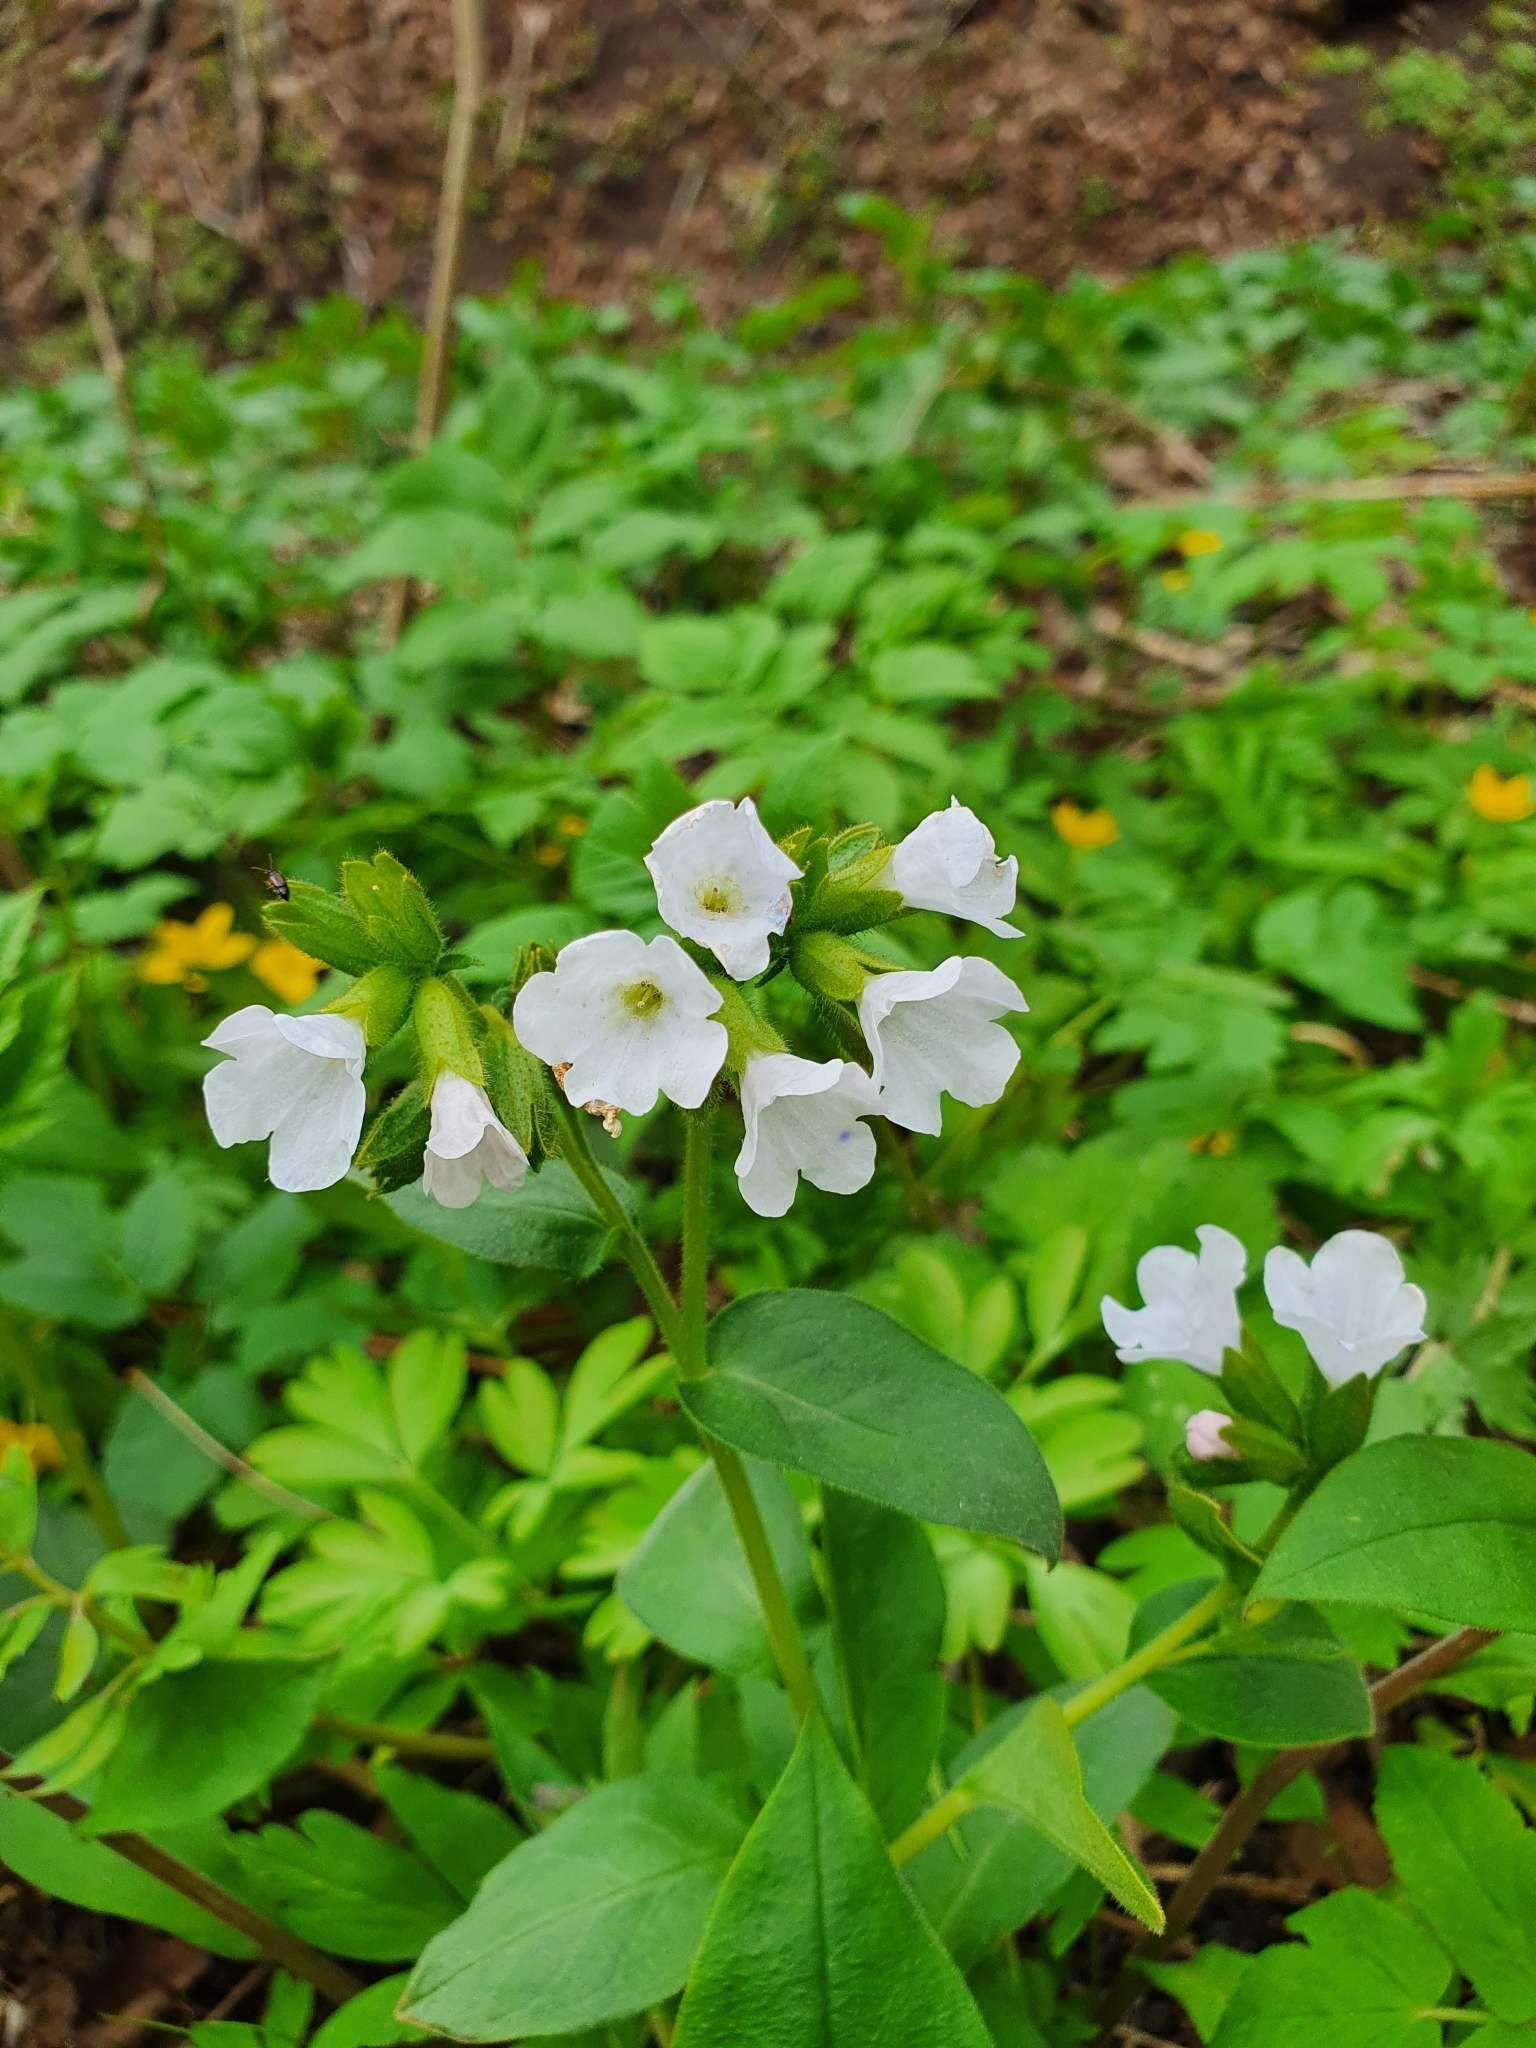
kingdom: Plantae
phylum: Tracheophyta
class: Magnoliopsida
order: Boraginales
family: Boraginaceae
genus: Pulmonaria
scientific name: Pulmonaria obscura
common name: Suffolk lungwort
